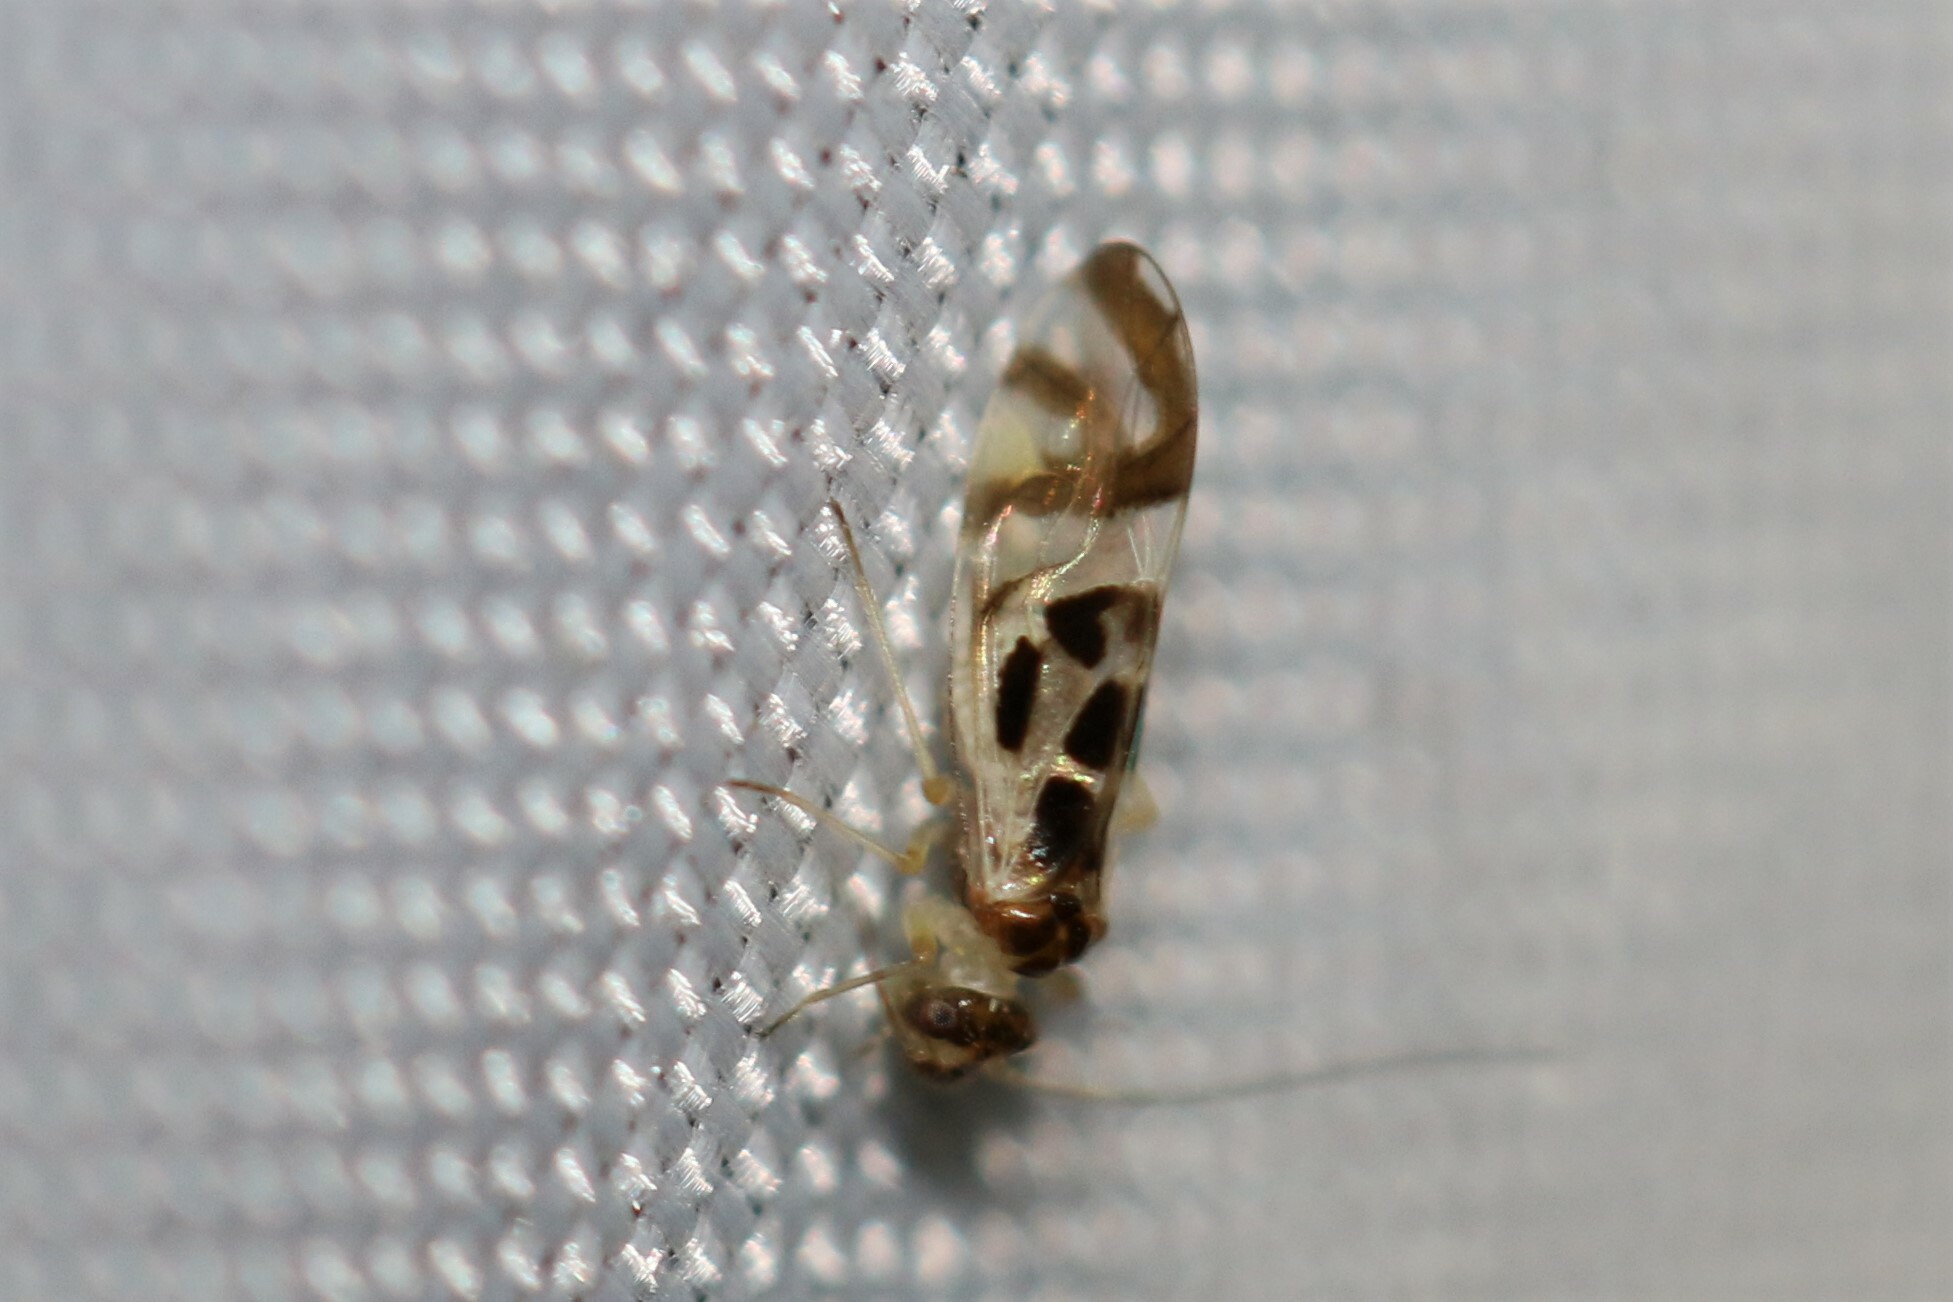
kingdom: Animalia
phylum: Arthropoda
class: Insecta
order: Psocodea
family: Stenopsocidae
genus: Graphopsocus
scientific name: Graphopsocus cruciatus
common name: Lizard bark louse
